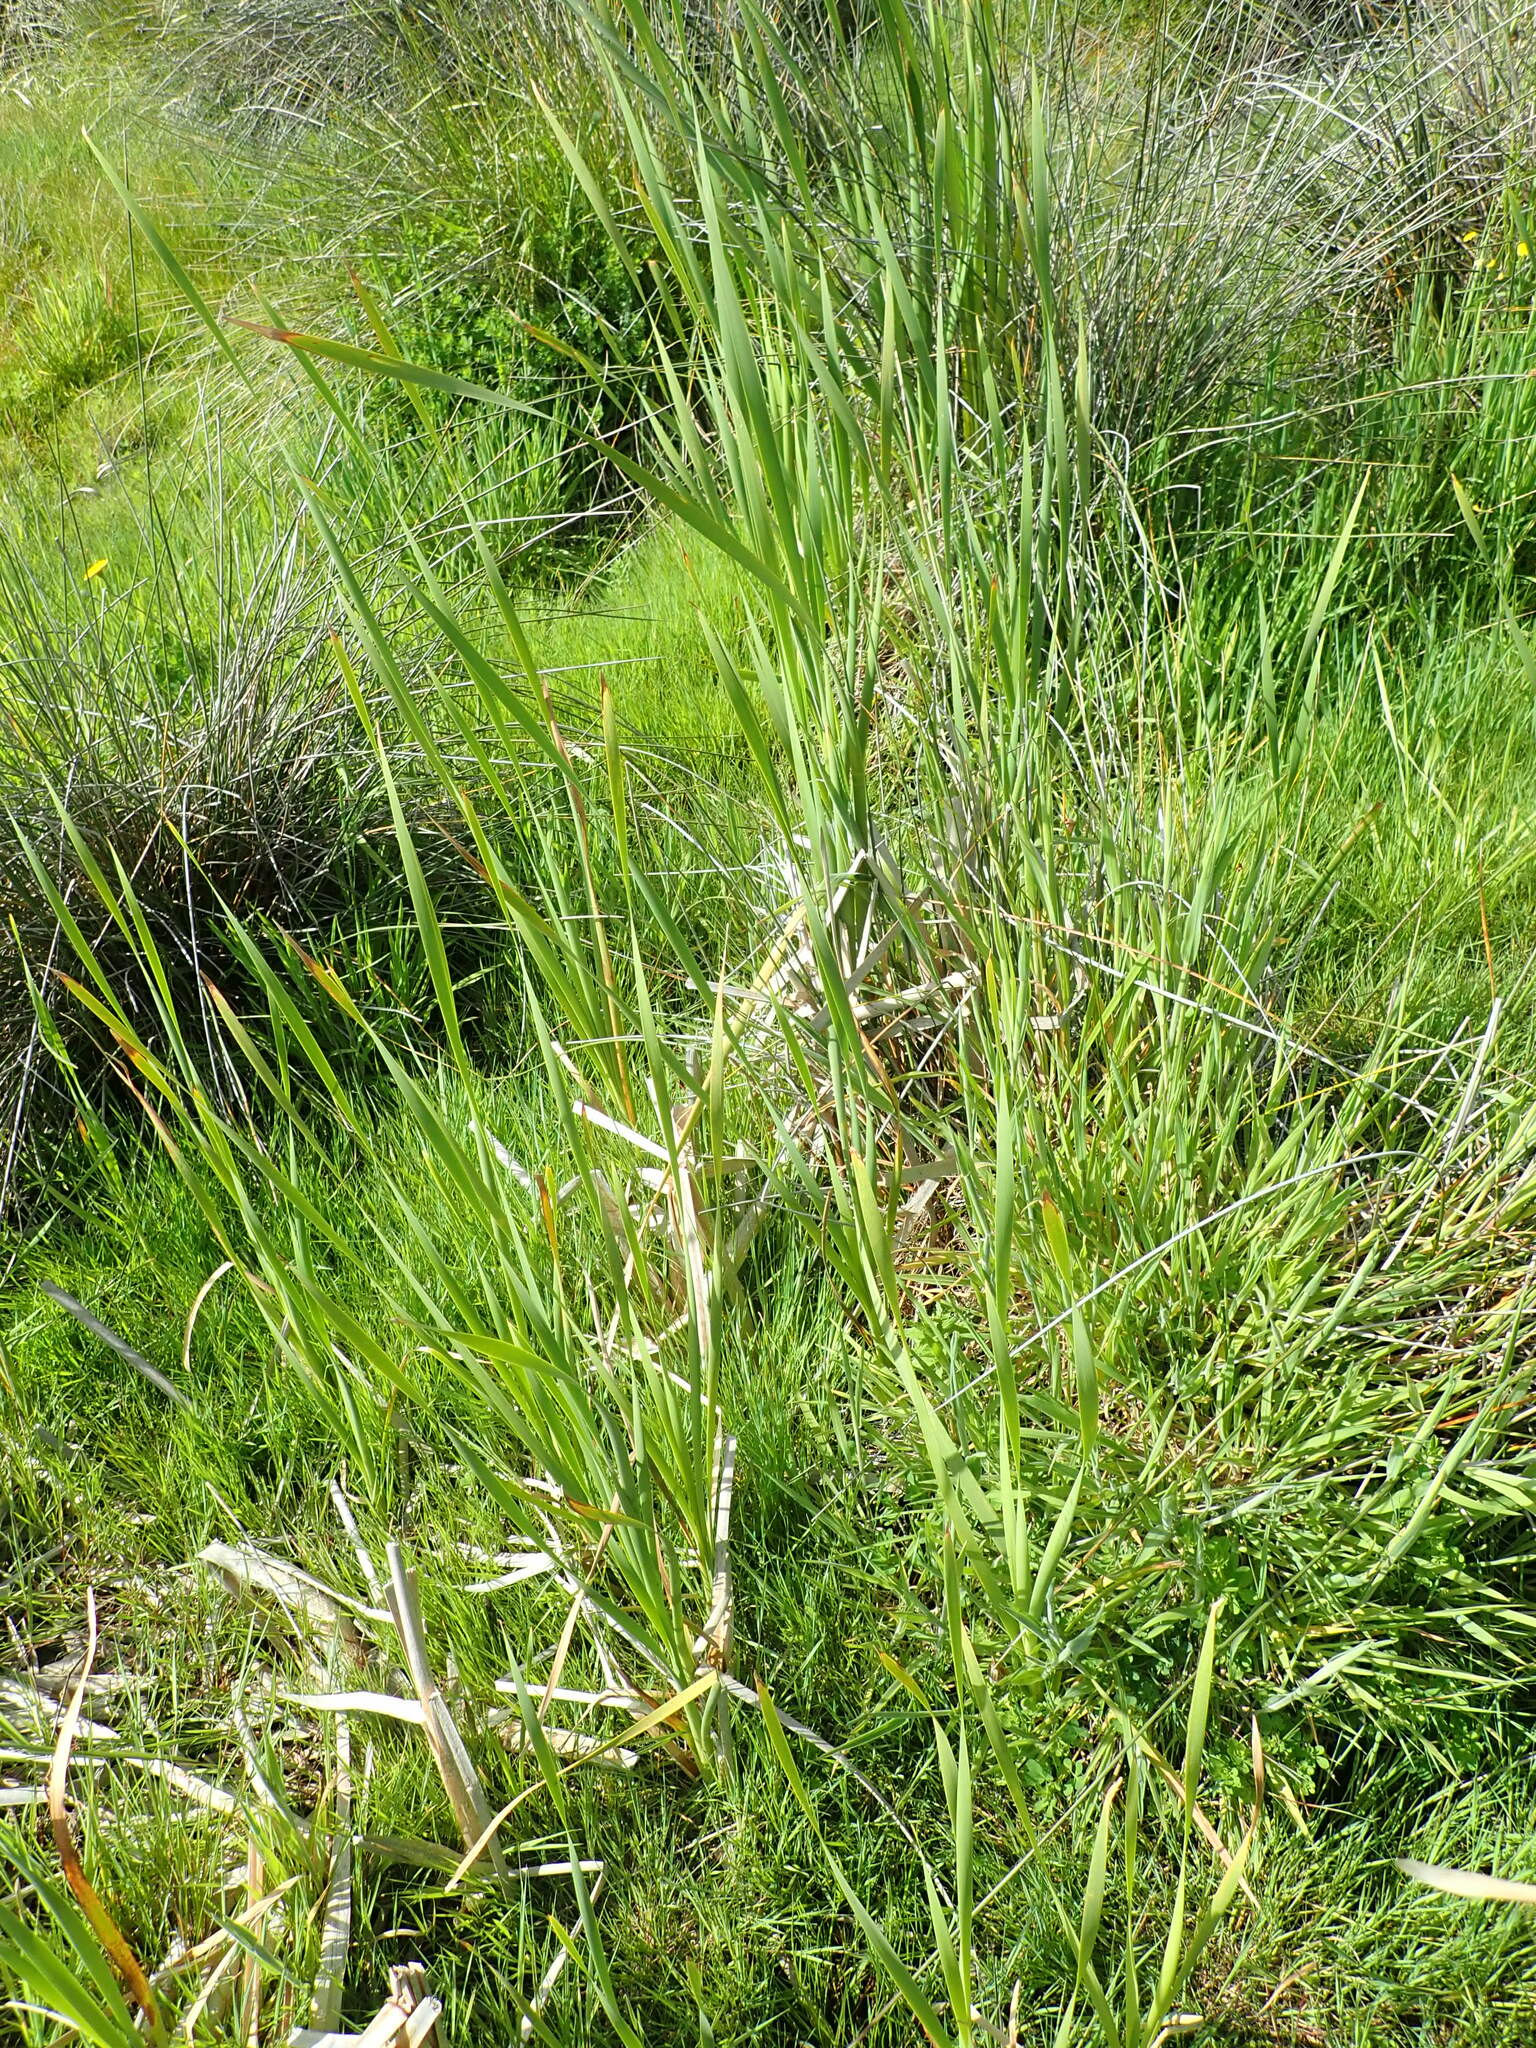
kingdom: Plantae
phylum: Tracheophyta
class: Liliopsida
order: Poales
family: Typhaceae
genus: Typha
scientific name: Typha orientalis
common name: Bullrush
